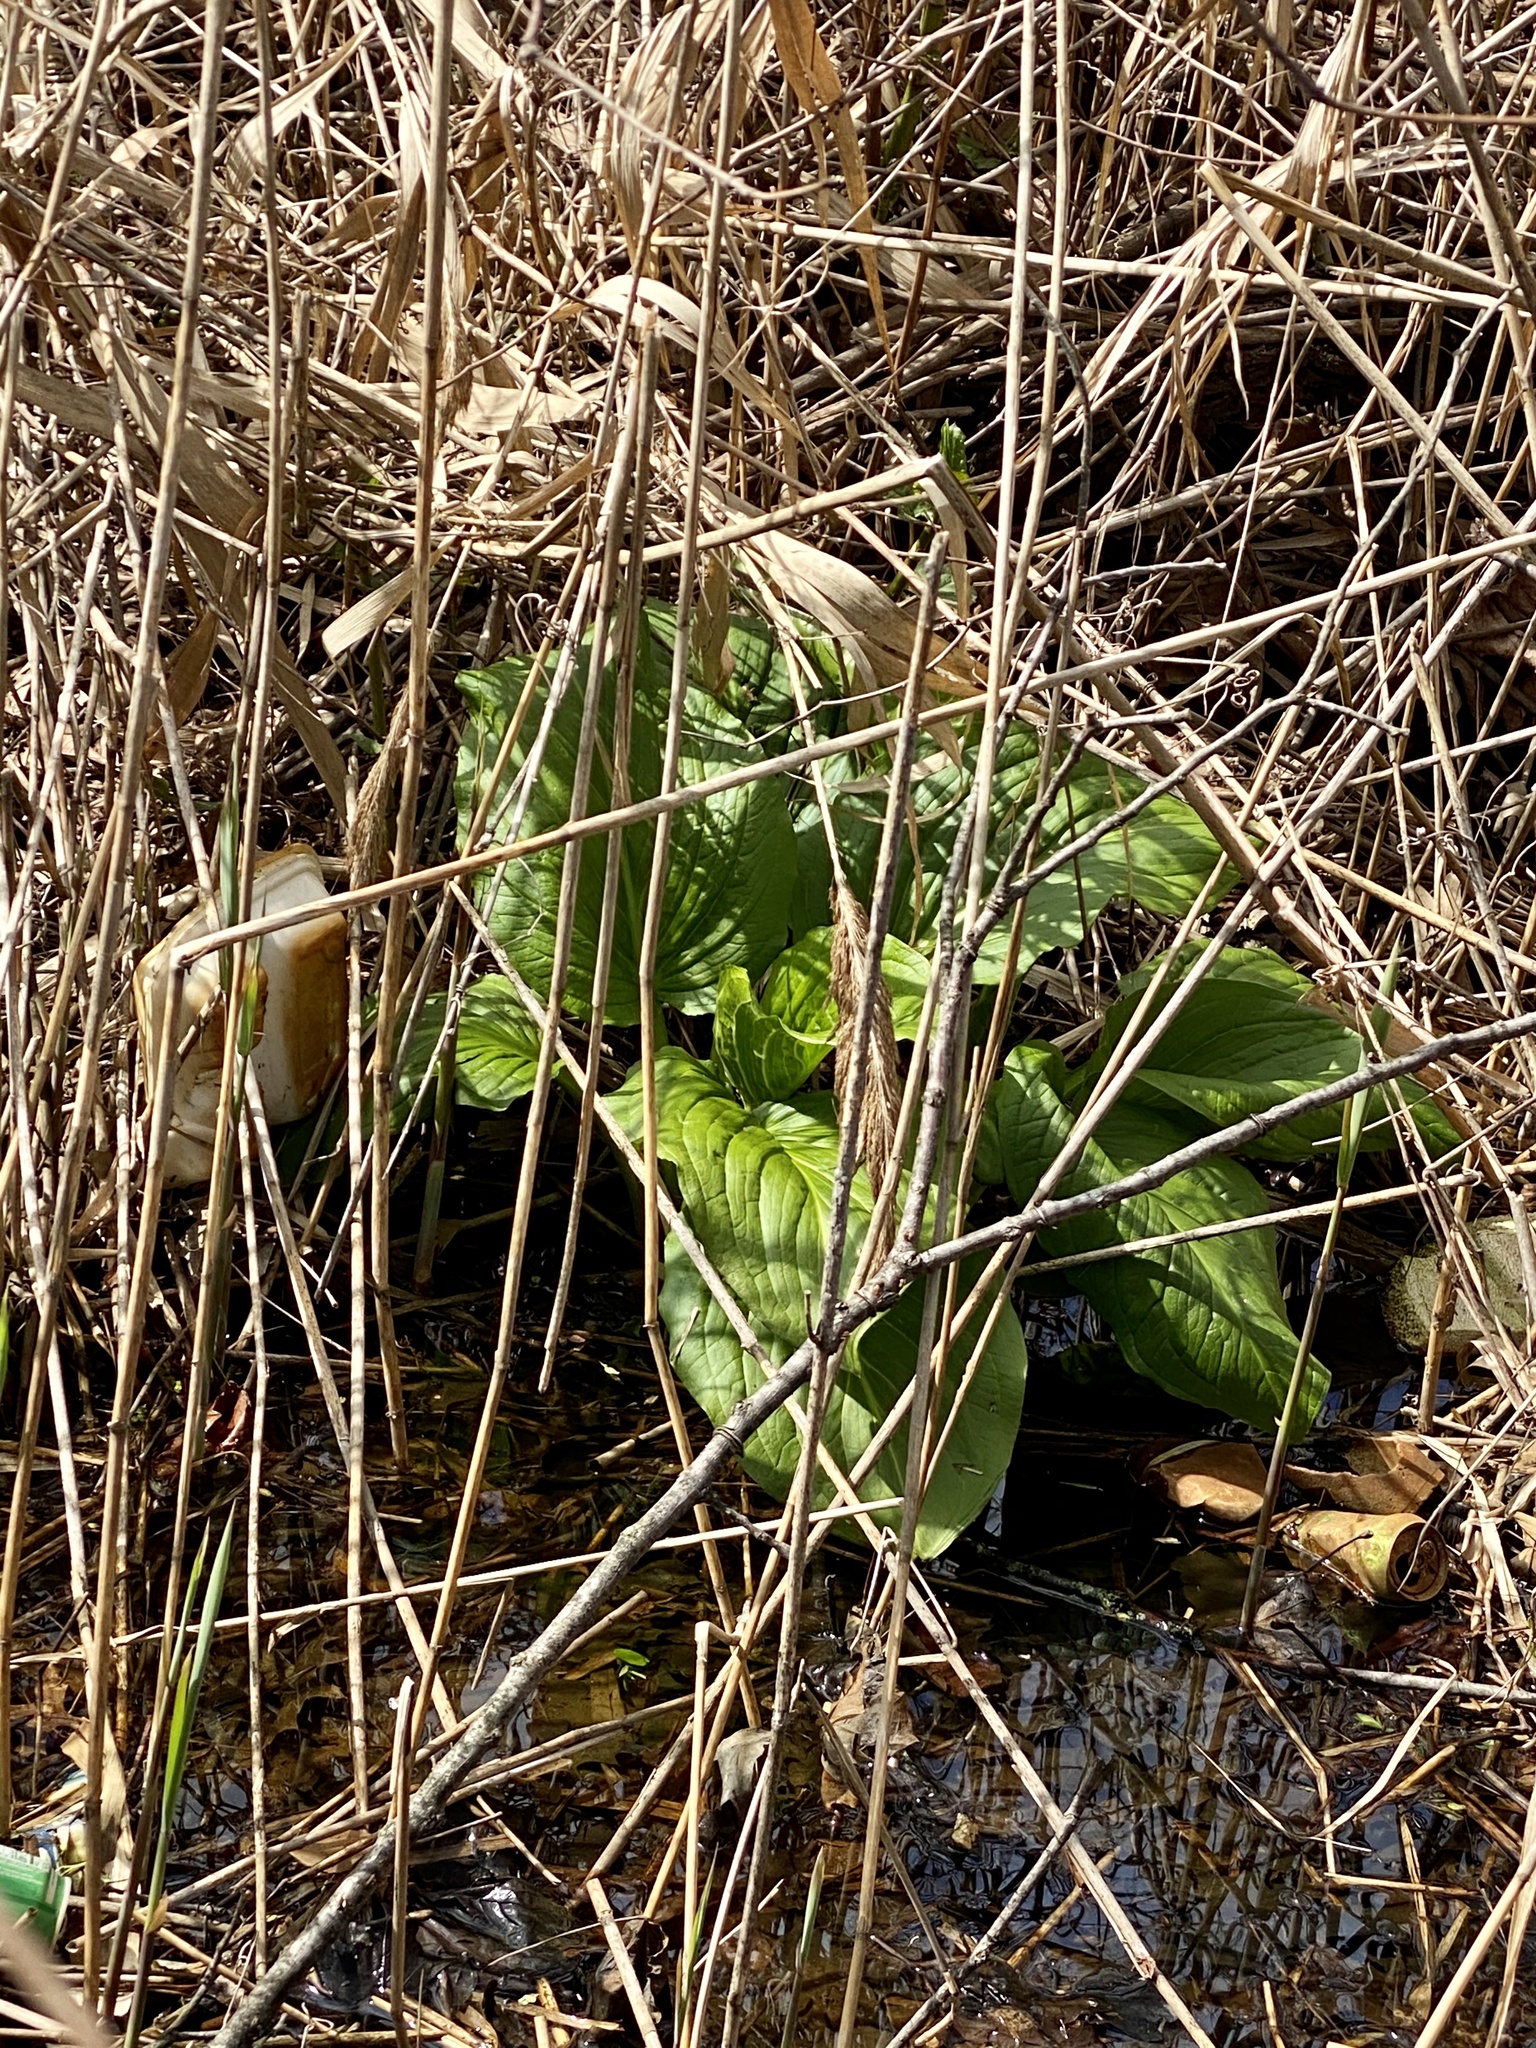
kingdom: Plantae
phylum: Tracheophyta
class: Liliopsida
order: Alismatales
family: Araceae
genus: Symplocarpus
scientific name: Symplocarpus foetidus
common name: Eastern skunk cabbage
